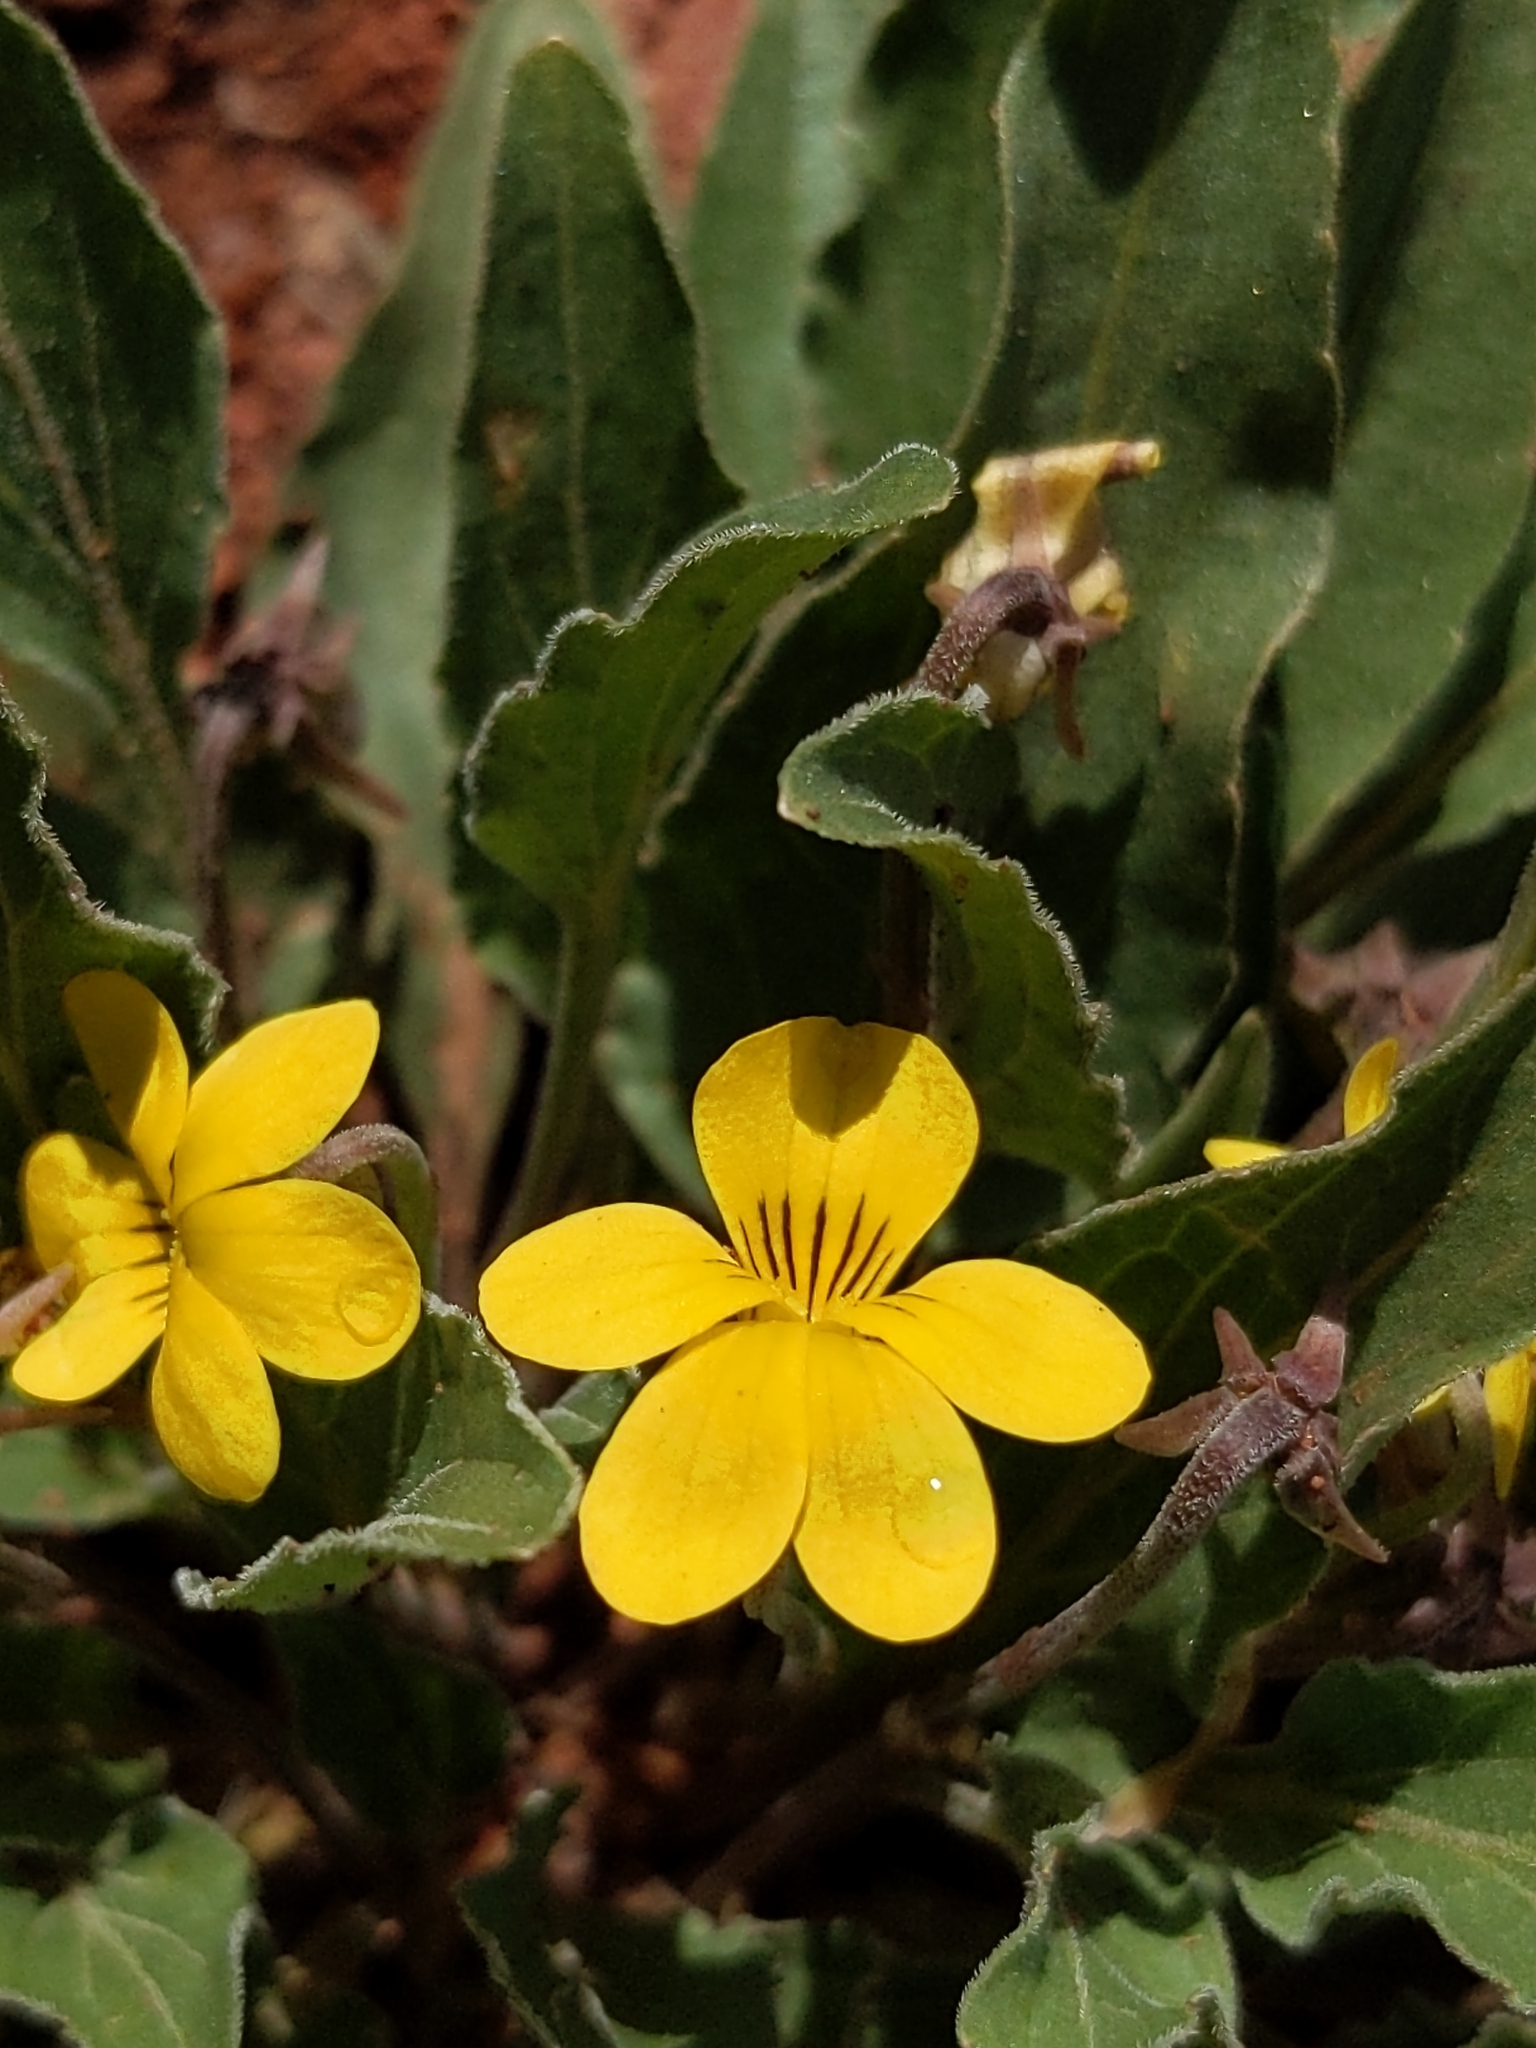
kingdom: Plantae
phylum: Tracheophyta
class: Magnoliopsida
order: Malpighiales
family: Violaceae
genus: Viola
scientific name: Viola nuttallii
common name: Yellow prairie violet
